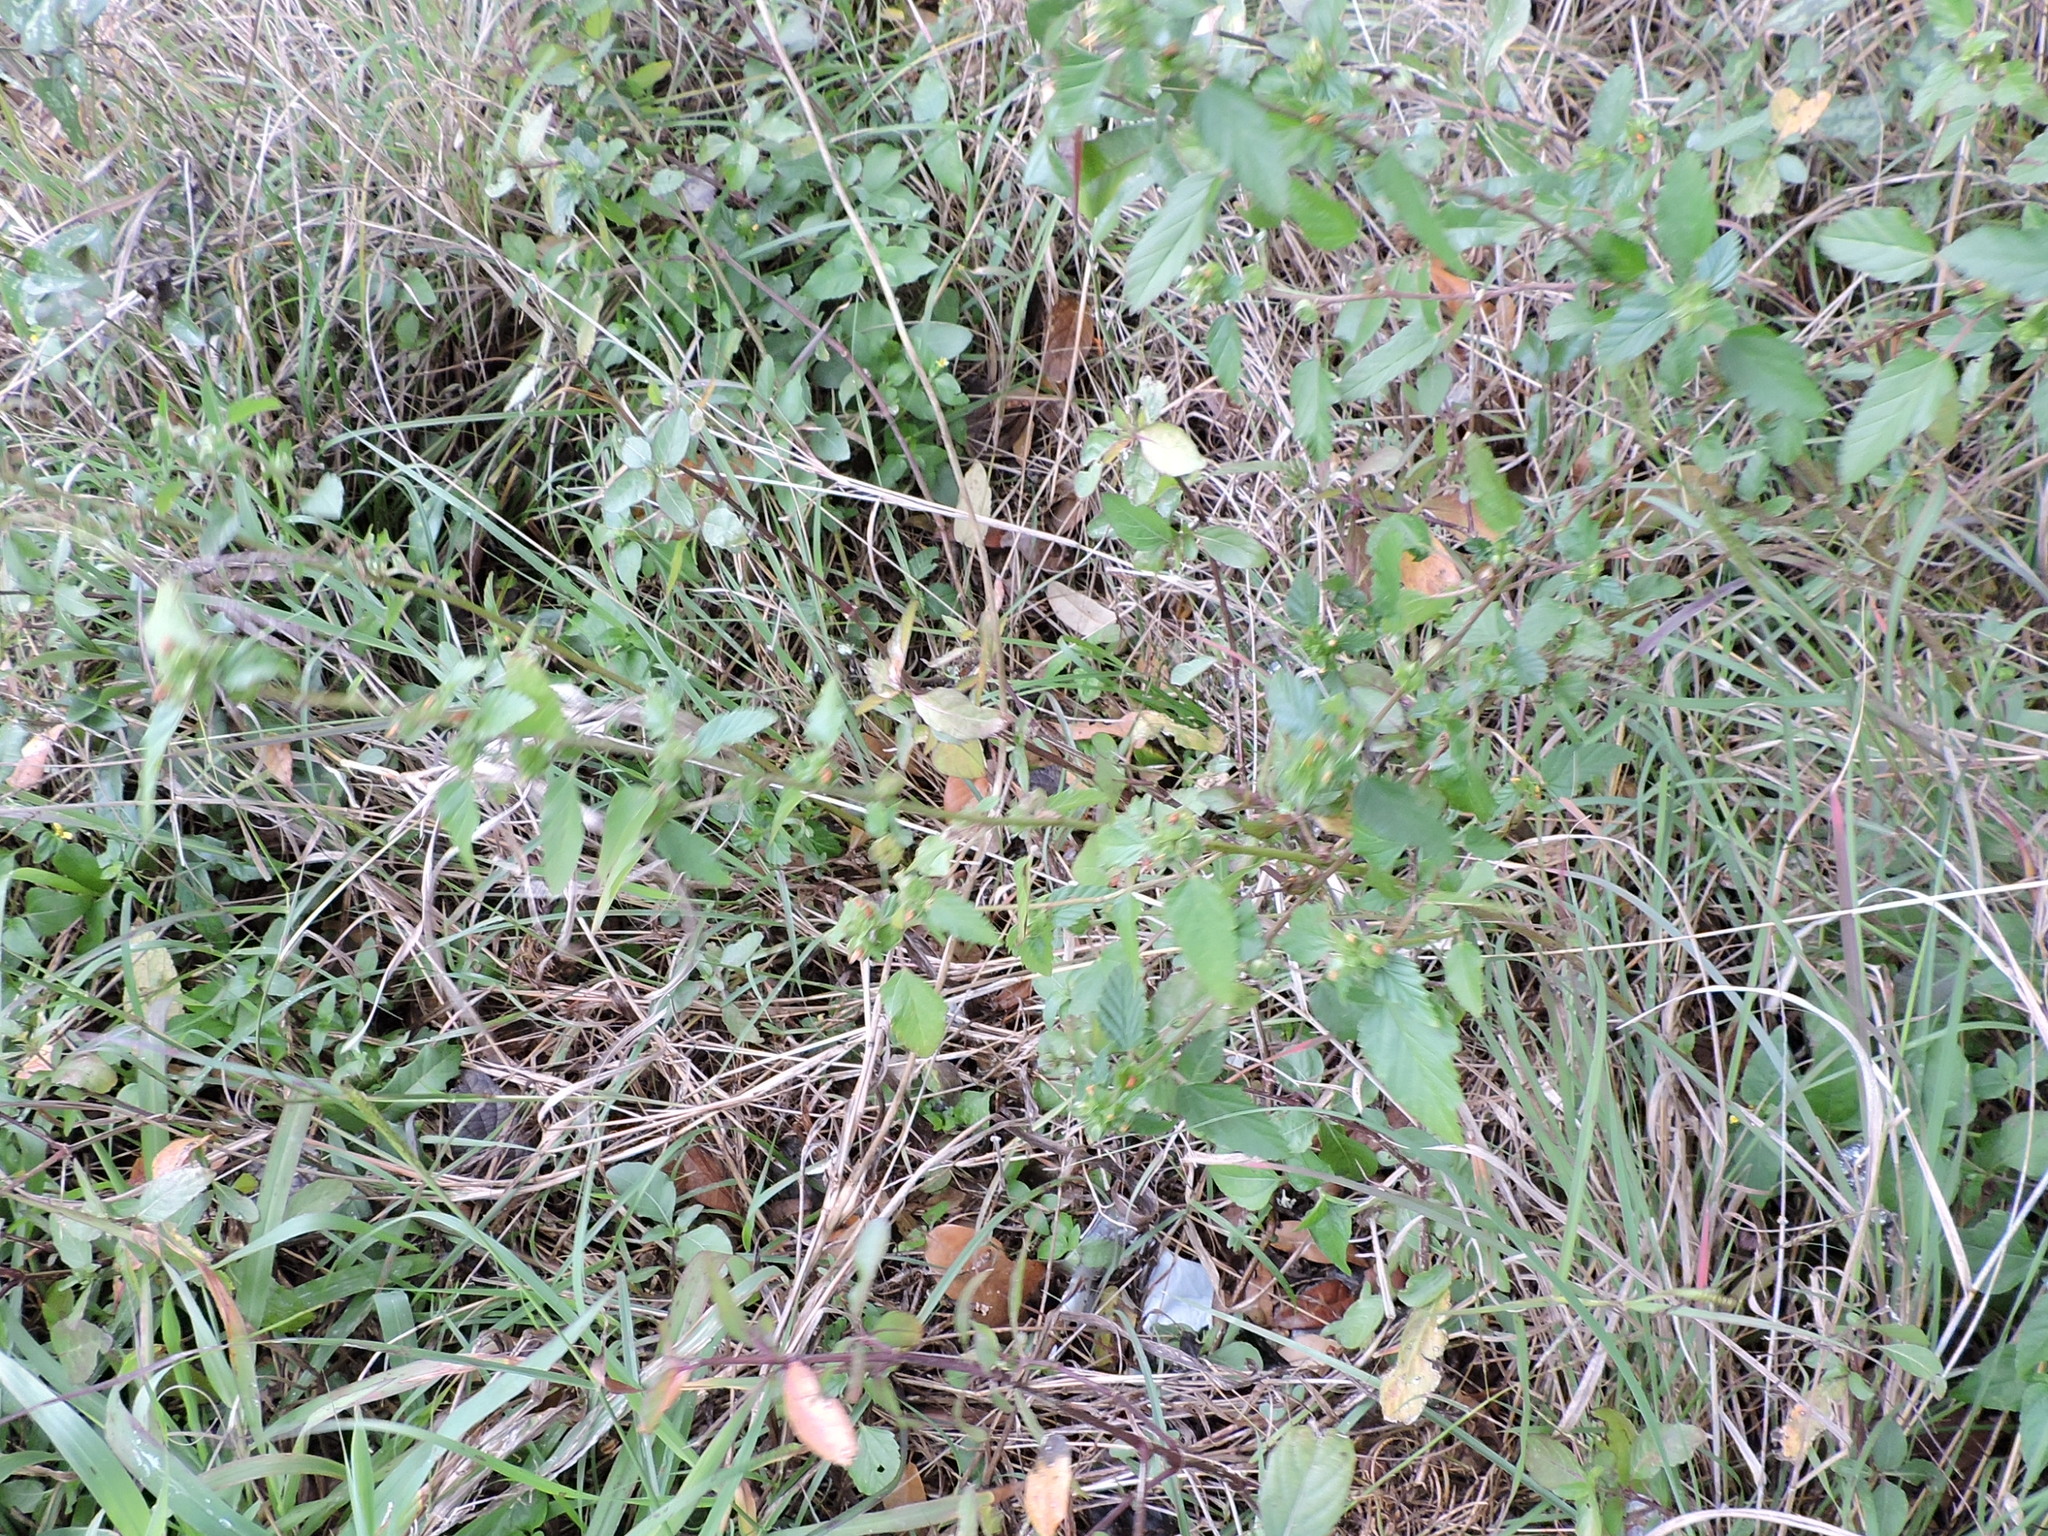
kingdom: Plantae
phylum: Tracheophyta
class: Magnoliopsida
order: Malvales
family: Malvaceae
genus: Malvastrum
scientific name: Malvastrum coromandelianum
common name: Threelobe false mallow
